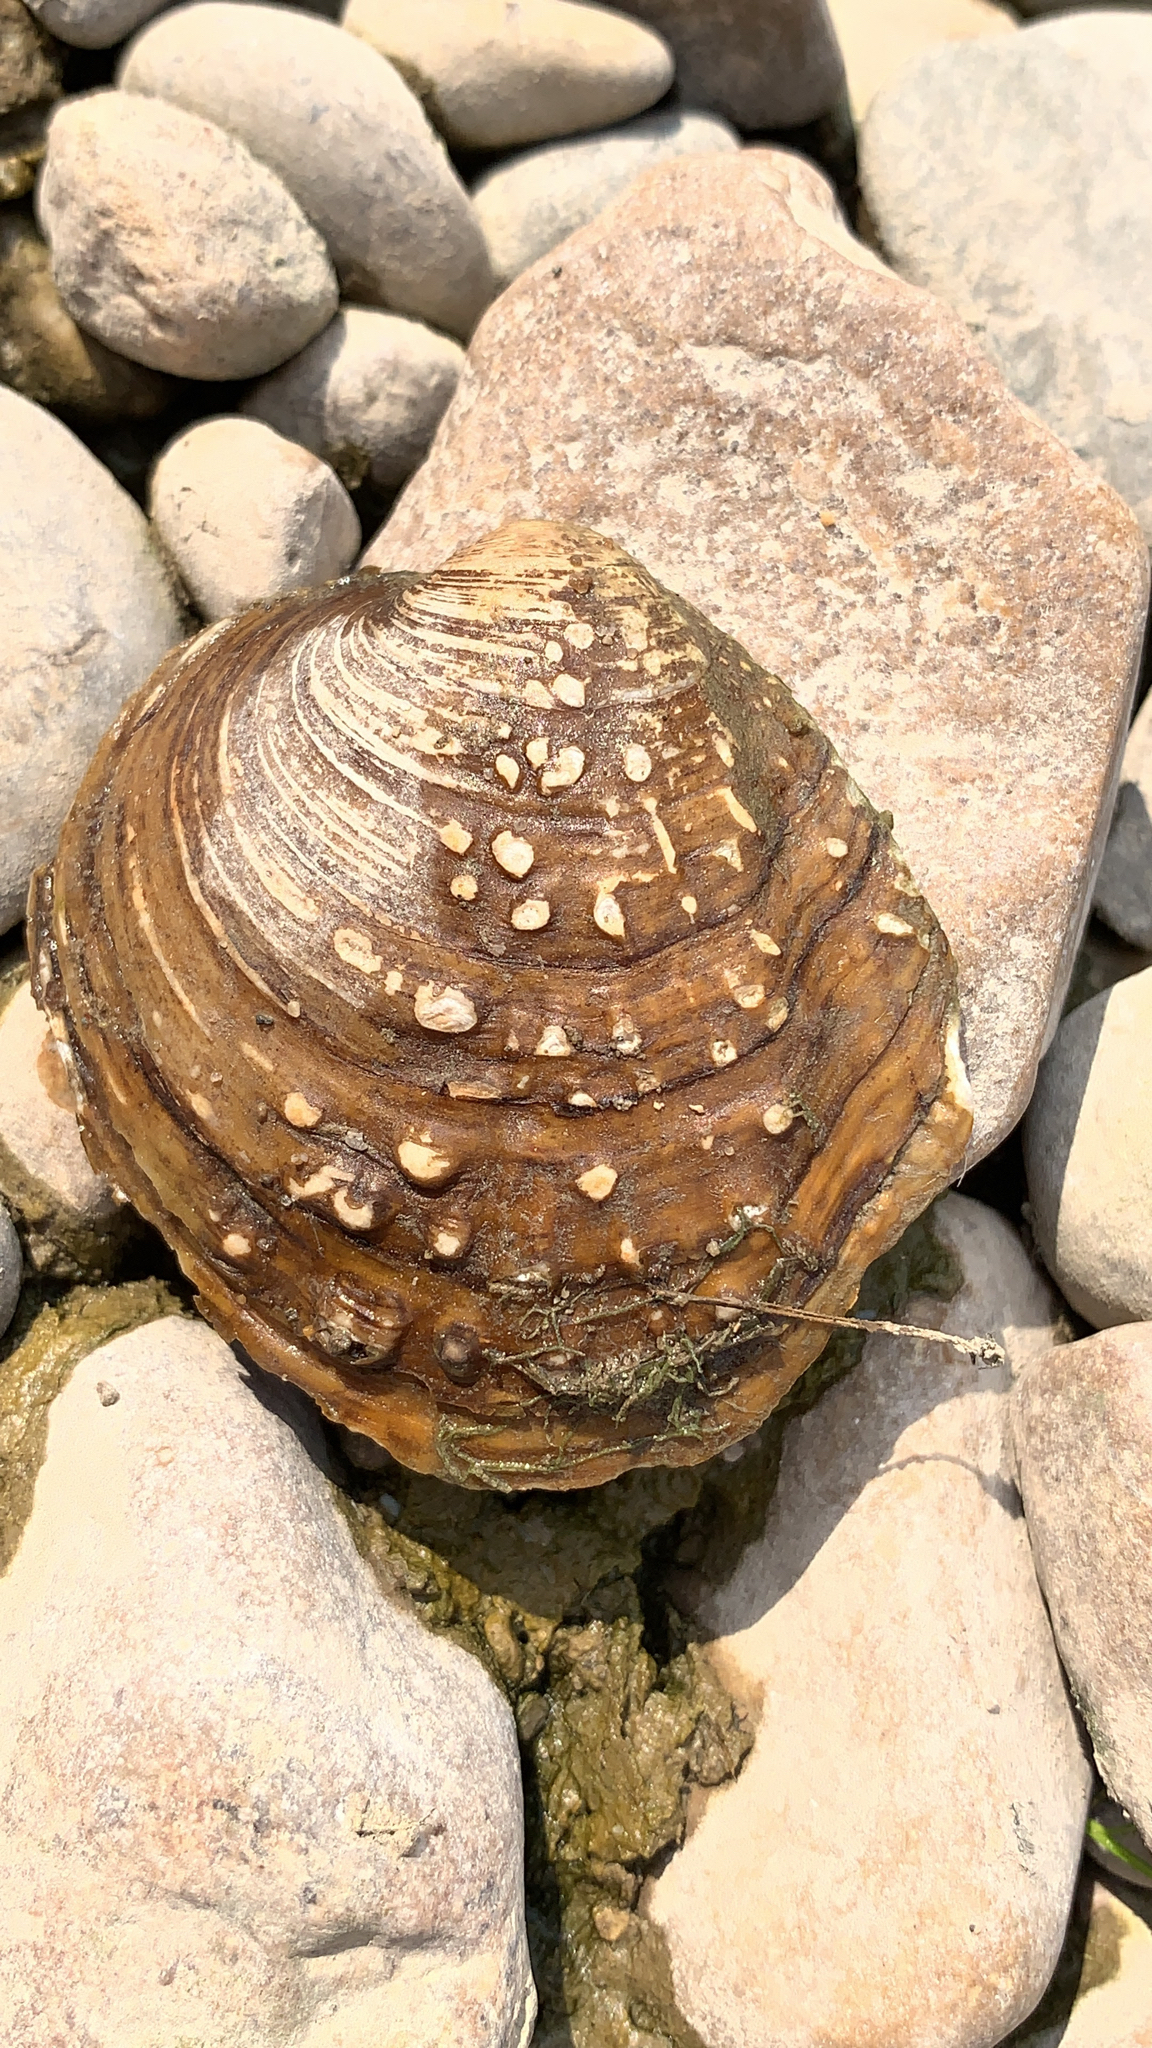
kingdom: Animalia
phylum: Mollusca
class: Bivalvia
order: Unionida
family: Unionidae
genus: Cyclonaias
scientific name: Cyclonaias tuberculata
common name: Purple wartyback
